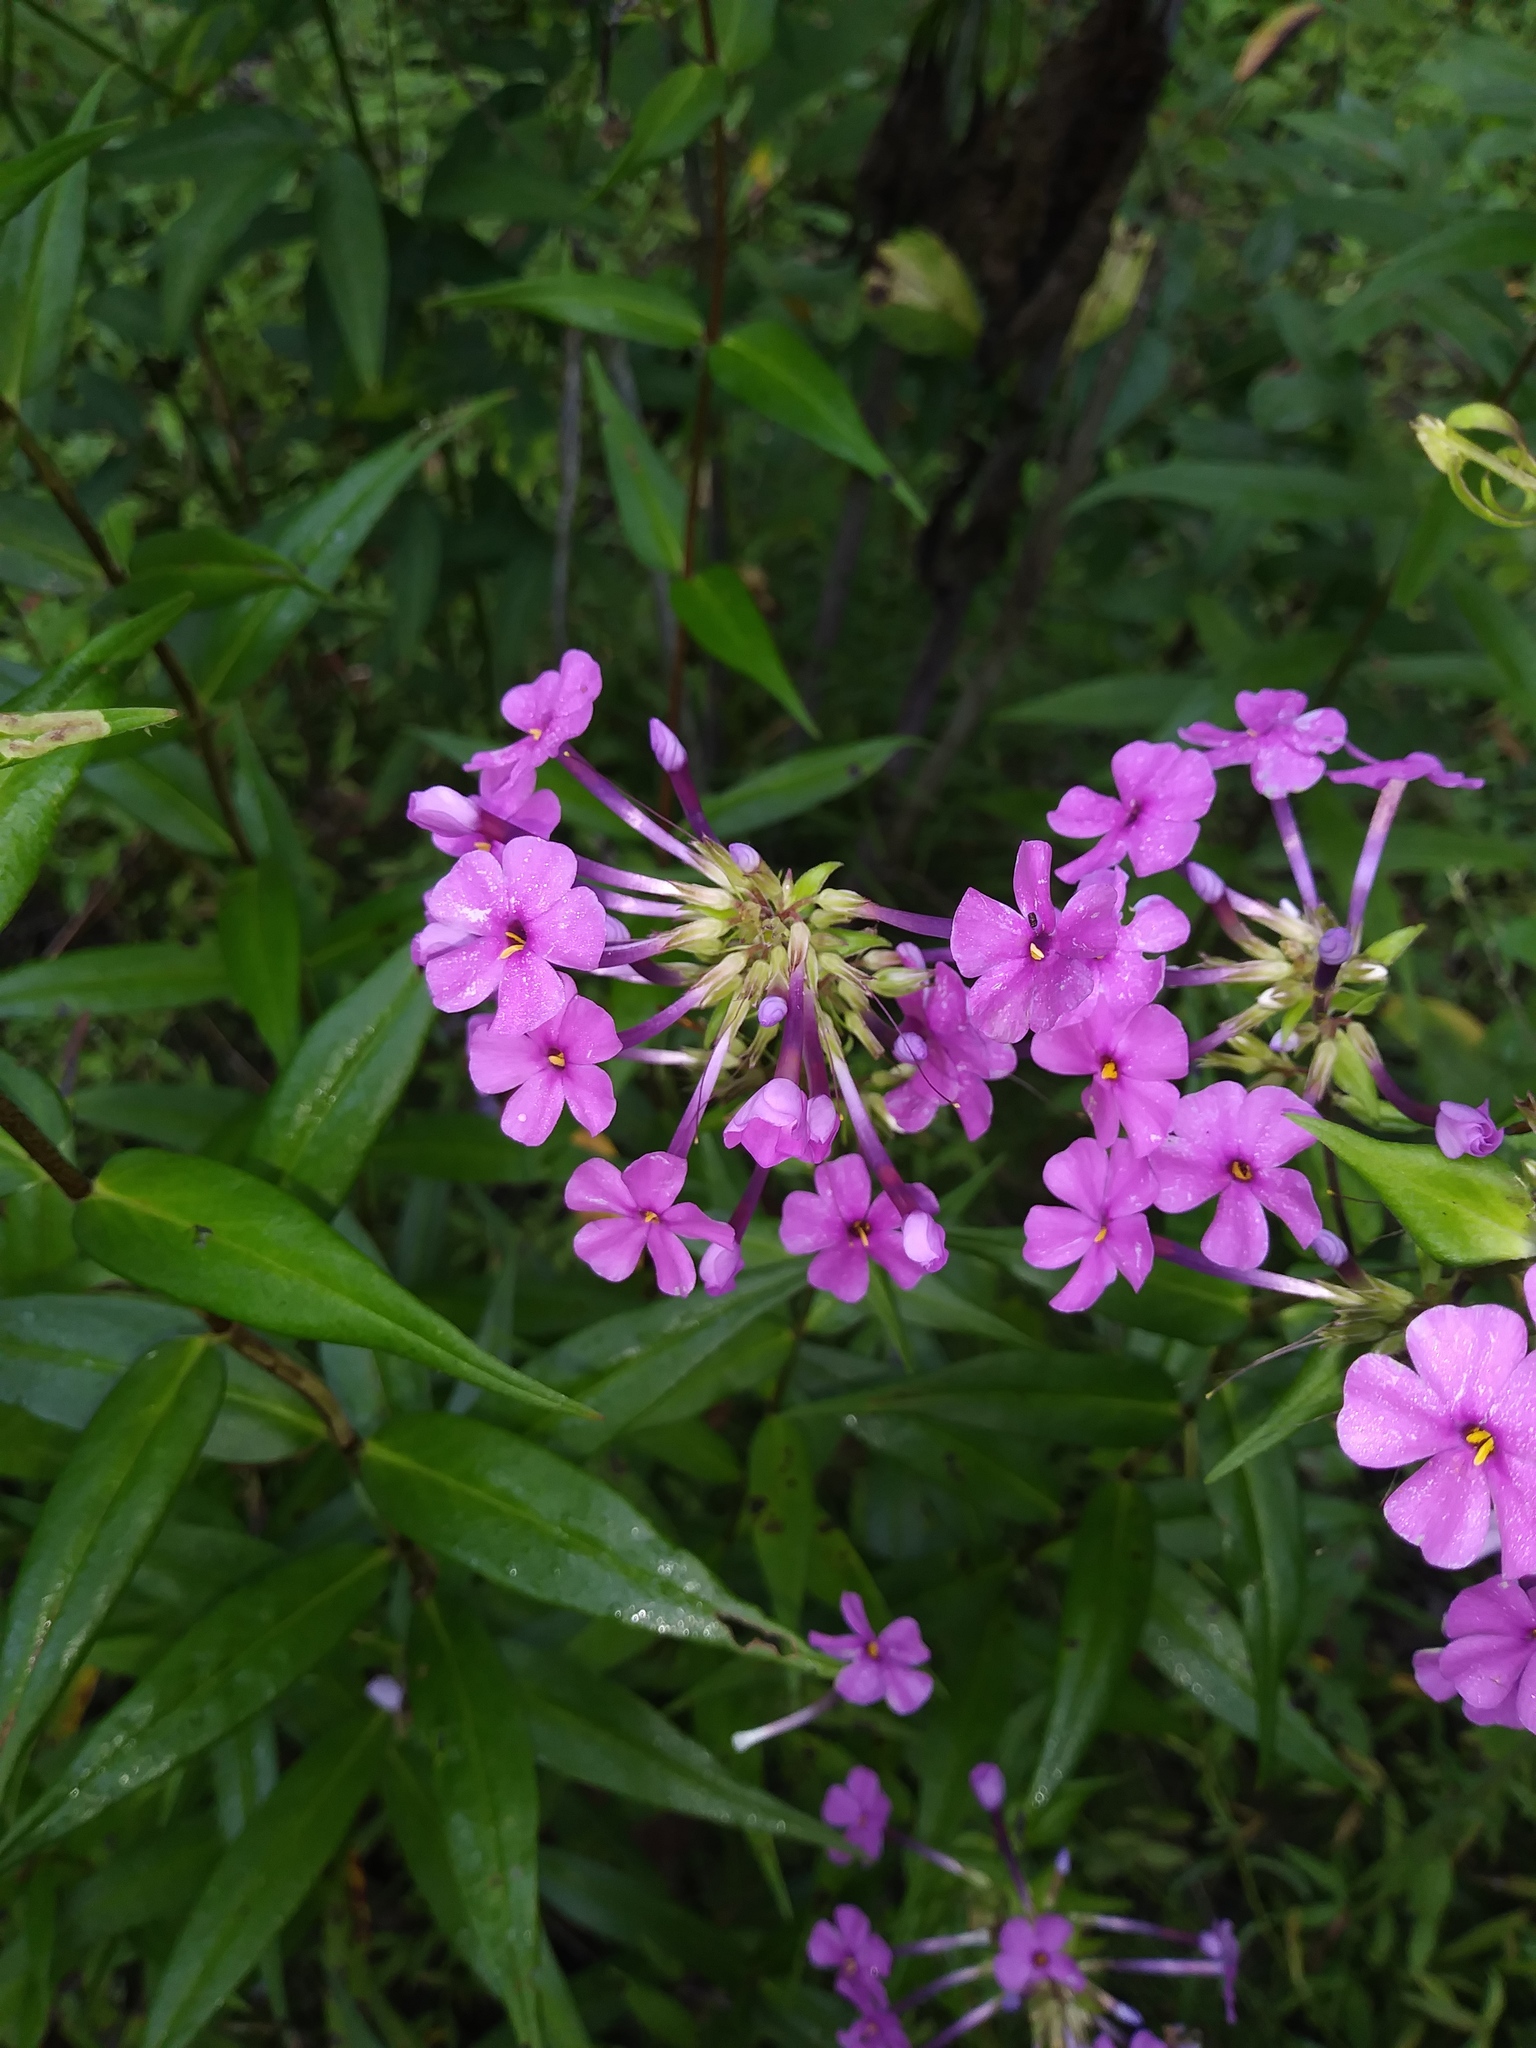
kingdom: Plantae
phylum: Tracheophyta
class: Magnoliopsida
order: Ericales
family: Polemoniaceae
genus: Phlox
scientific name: Phlox maculata
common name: Meadow phlox
